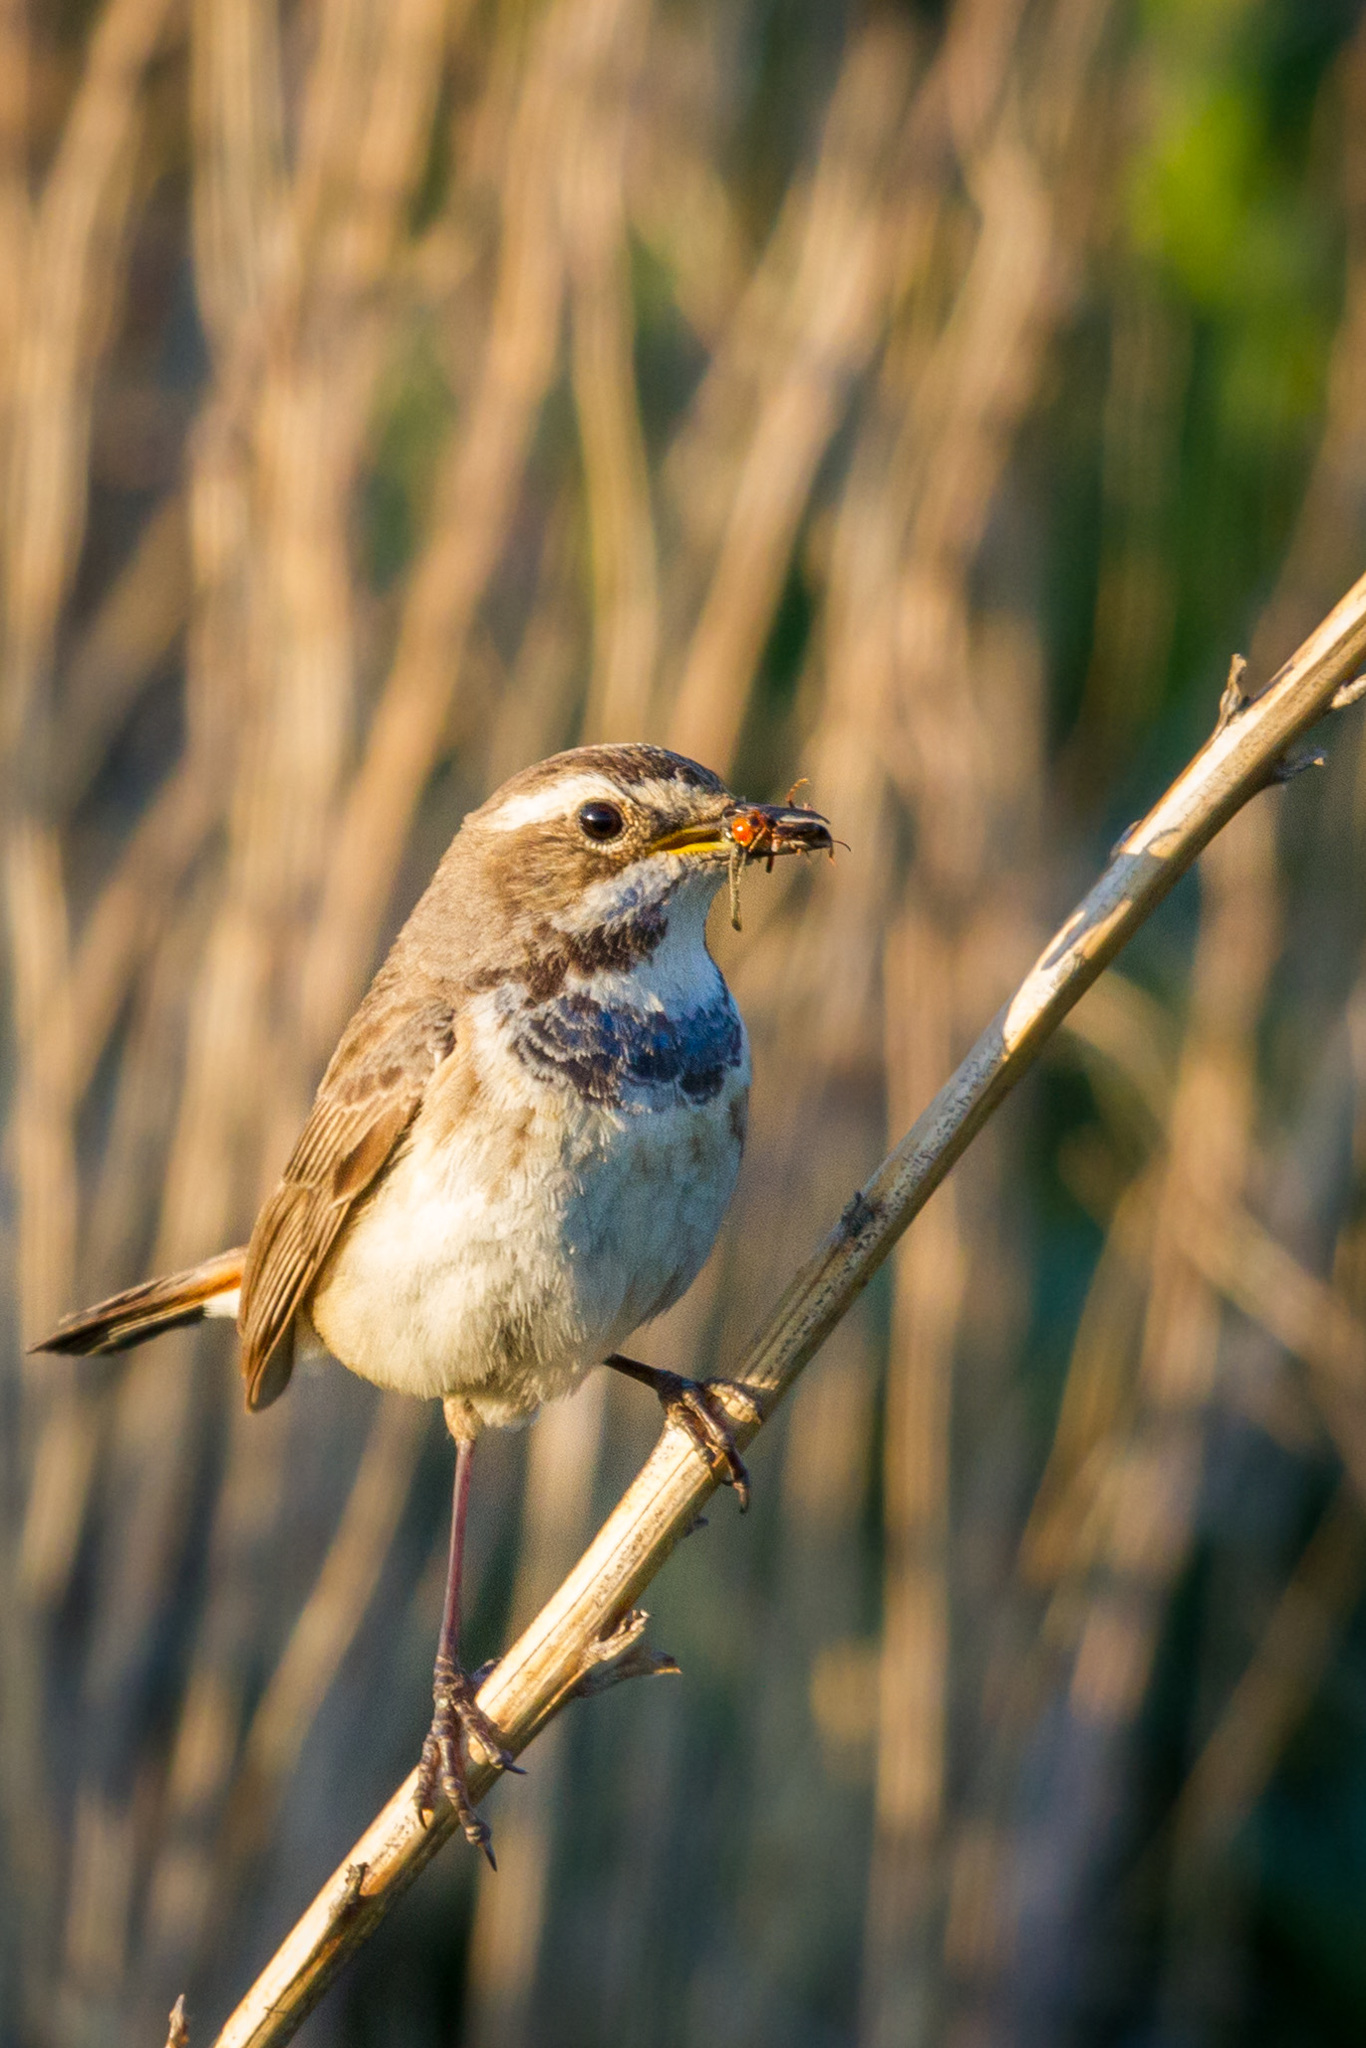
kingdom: Animalia
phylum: Chordata
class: Aves
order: Passeriformes
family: Muscicapidae
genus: Luscinia
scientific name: Luscinia svecica
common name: Bluethroat
